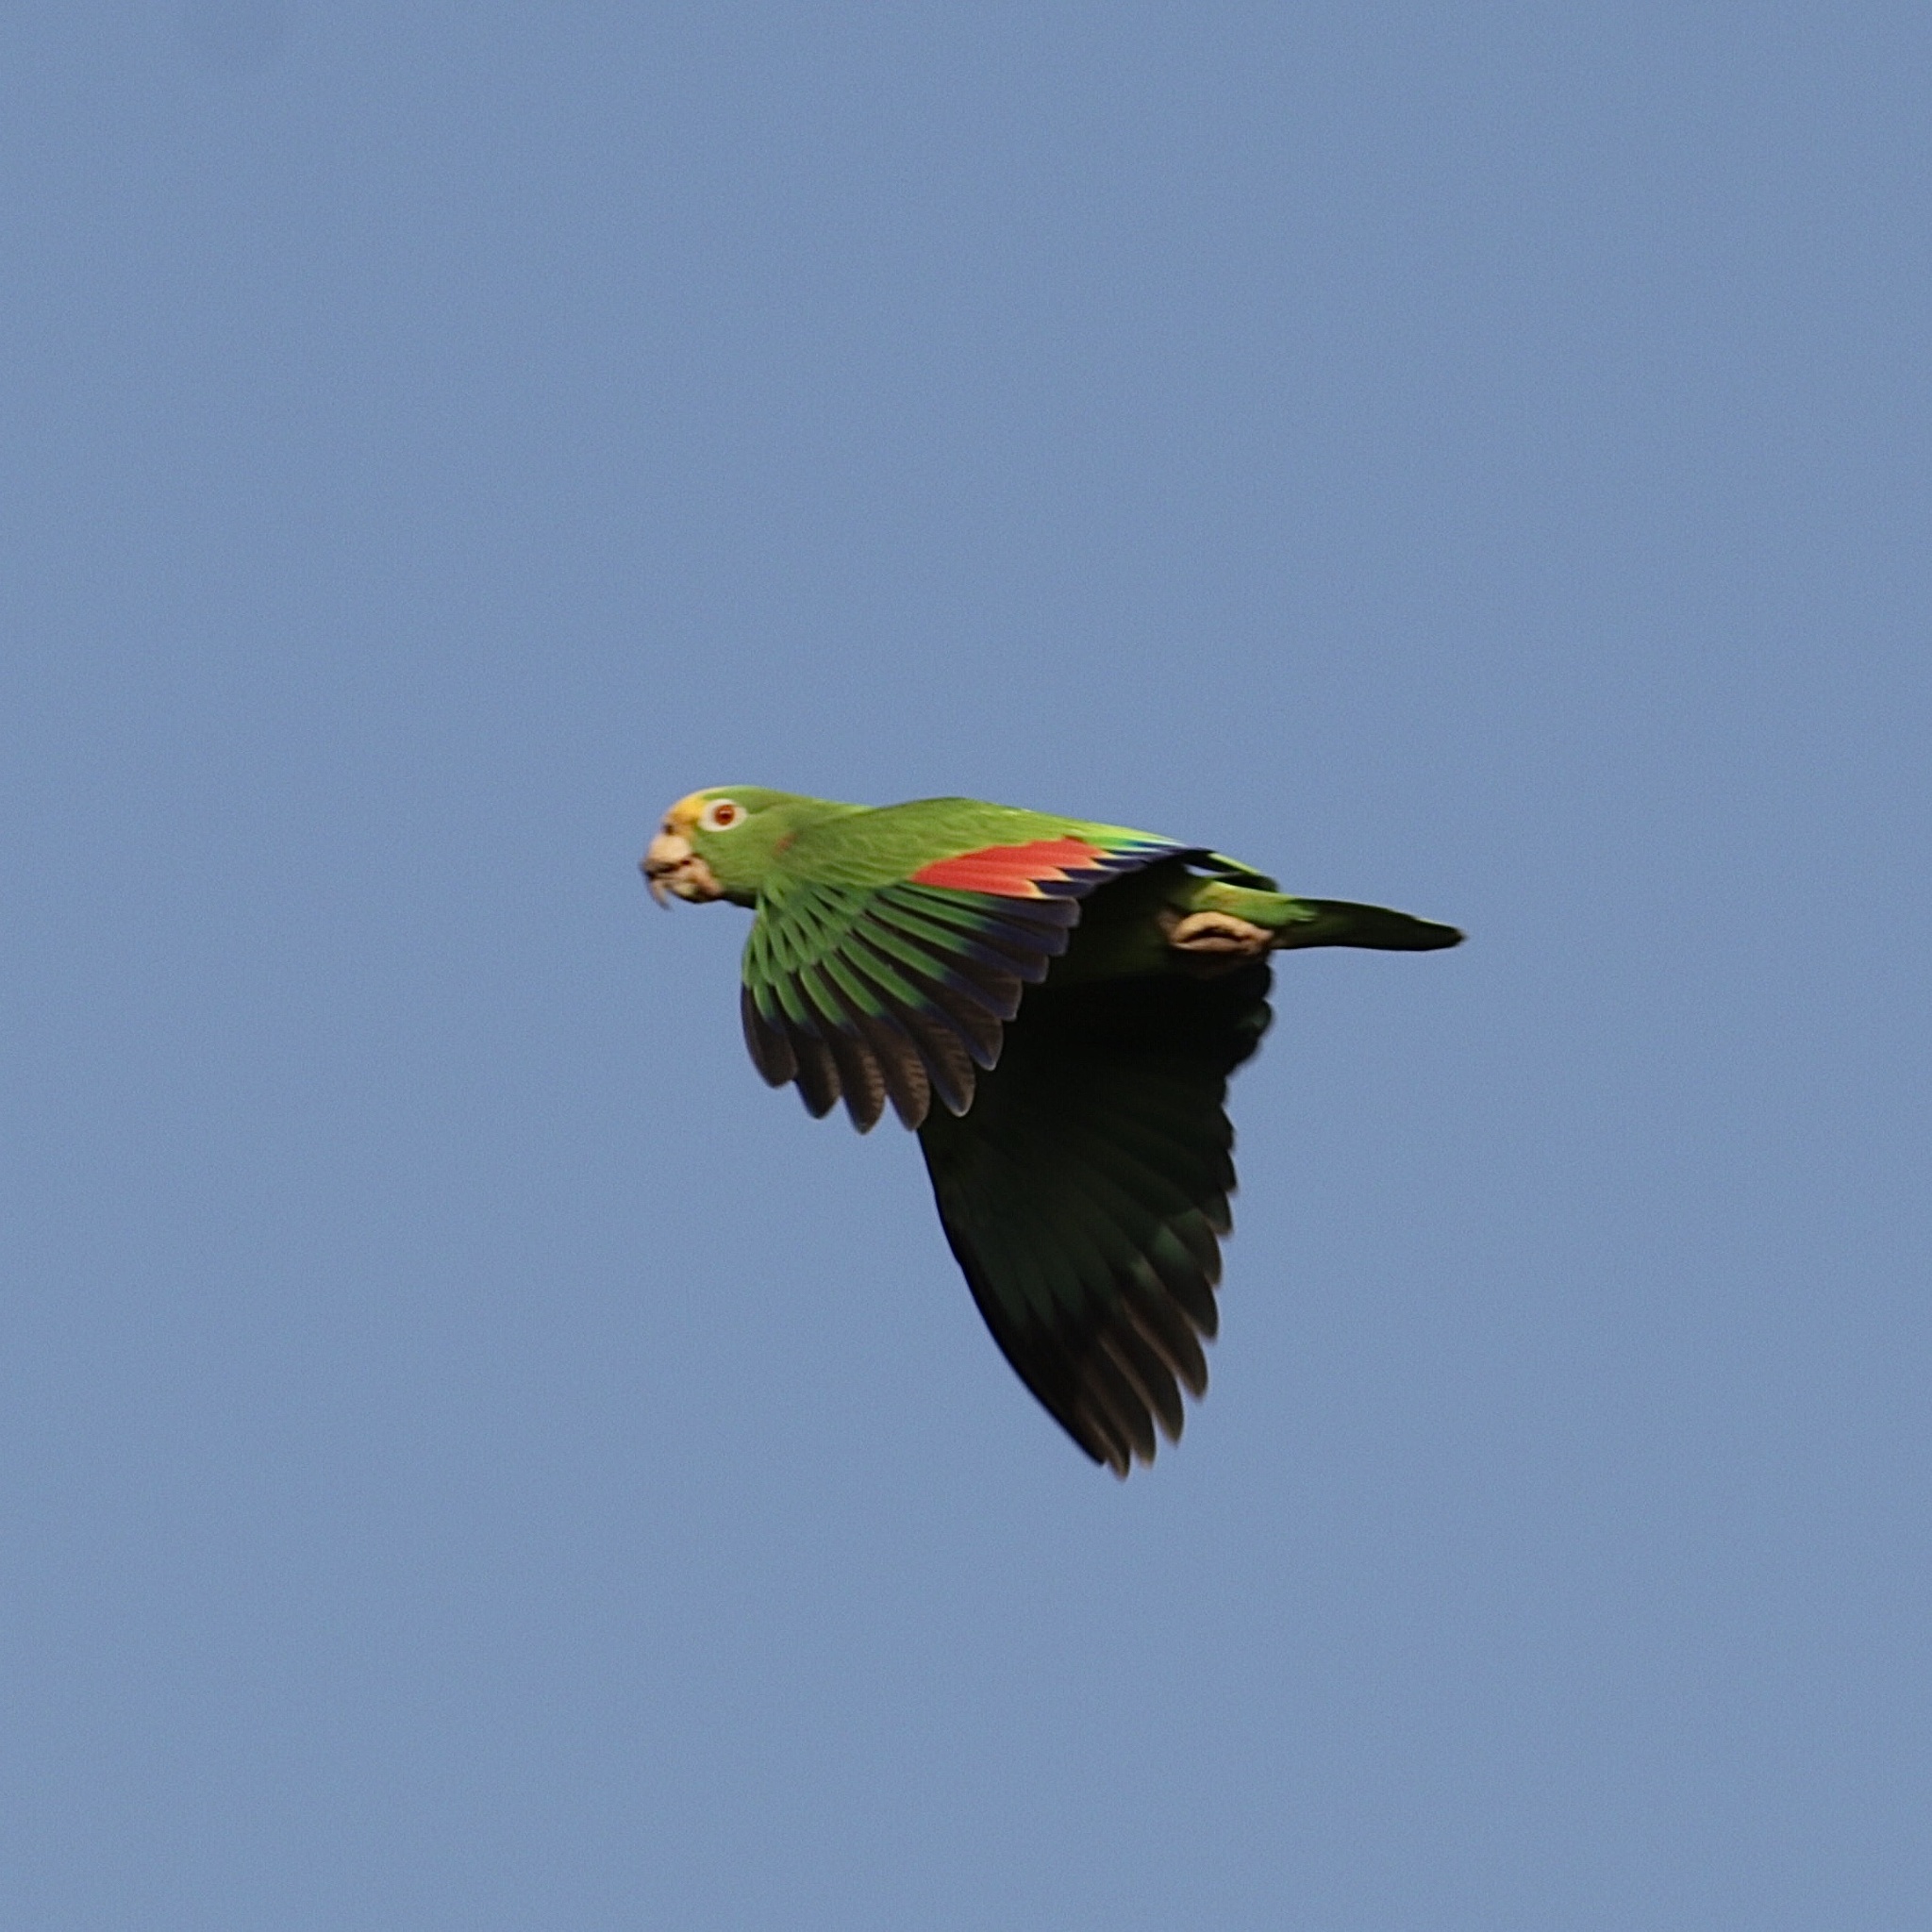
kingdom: Animalia
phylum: Chordata
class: Aves
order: Psittaciformes
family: Psittacidae
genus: Amazona
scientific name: Amazona ochrocephala
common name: Yellow-crowned amazon
